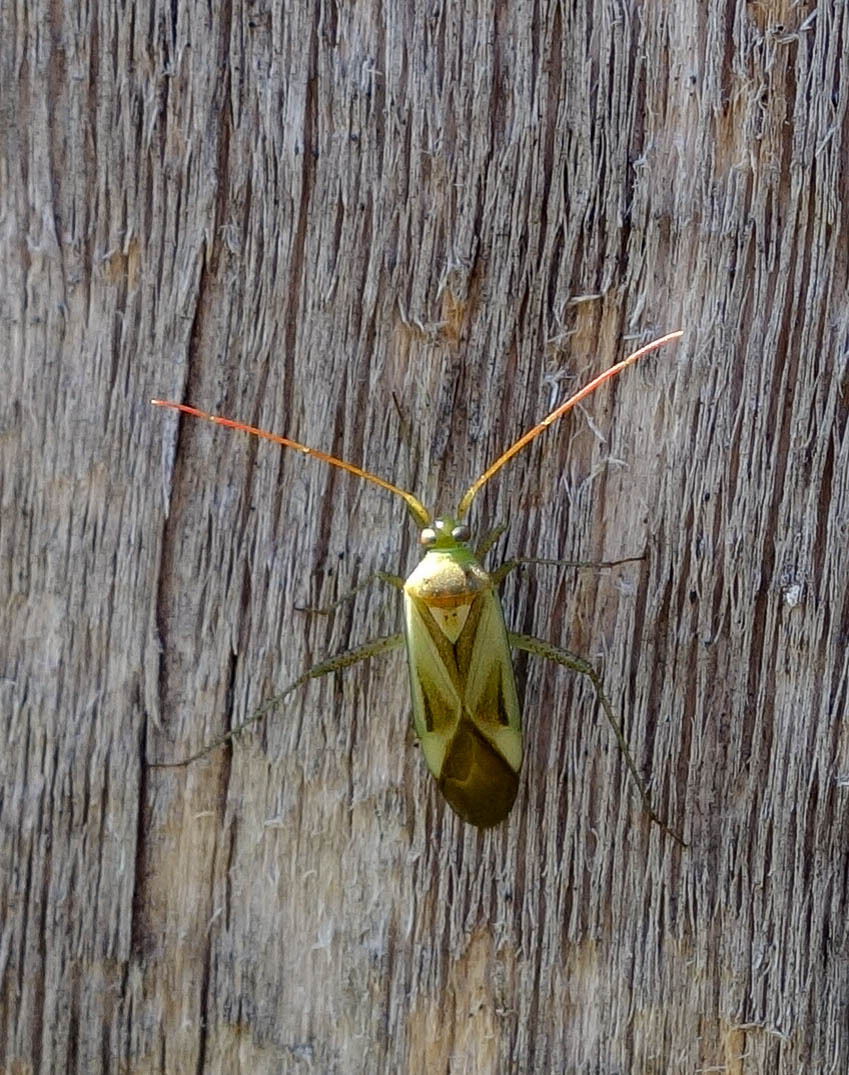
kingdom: Animalia
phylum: Arthropoda
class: Insecta
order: Hemiptera
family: Miridae
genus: Adelphocoris
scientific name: Adelphocoris lineolatus
